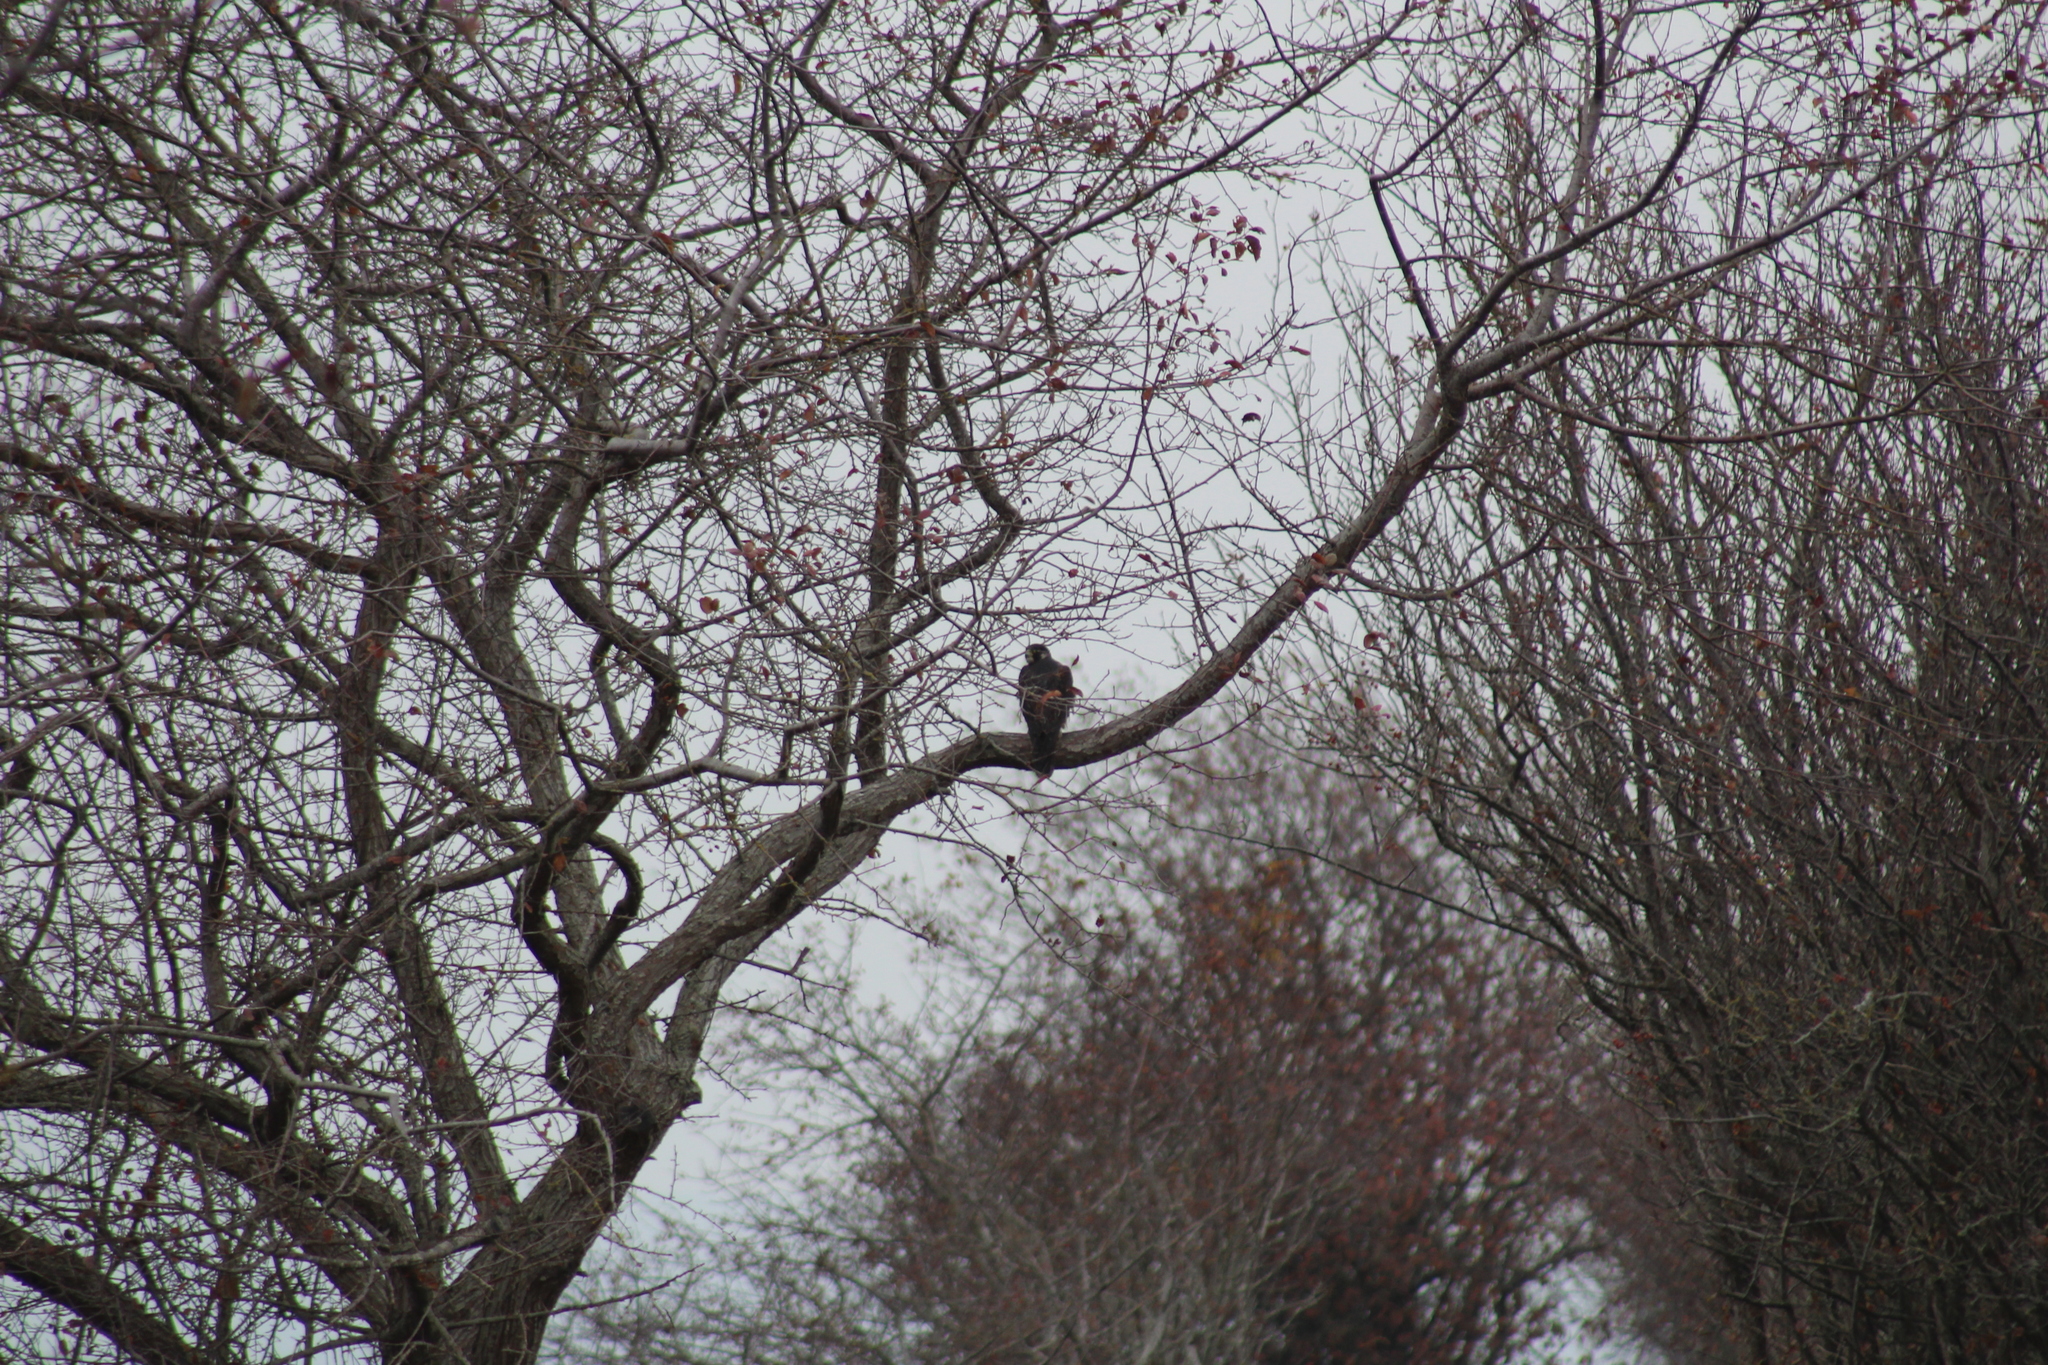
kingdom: Animalia
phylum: Chordata
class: Aves
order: Falconiformes
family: Falconidae
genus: Falco
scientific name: Falco peregrinus
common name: Peregrine falcon
